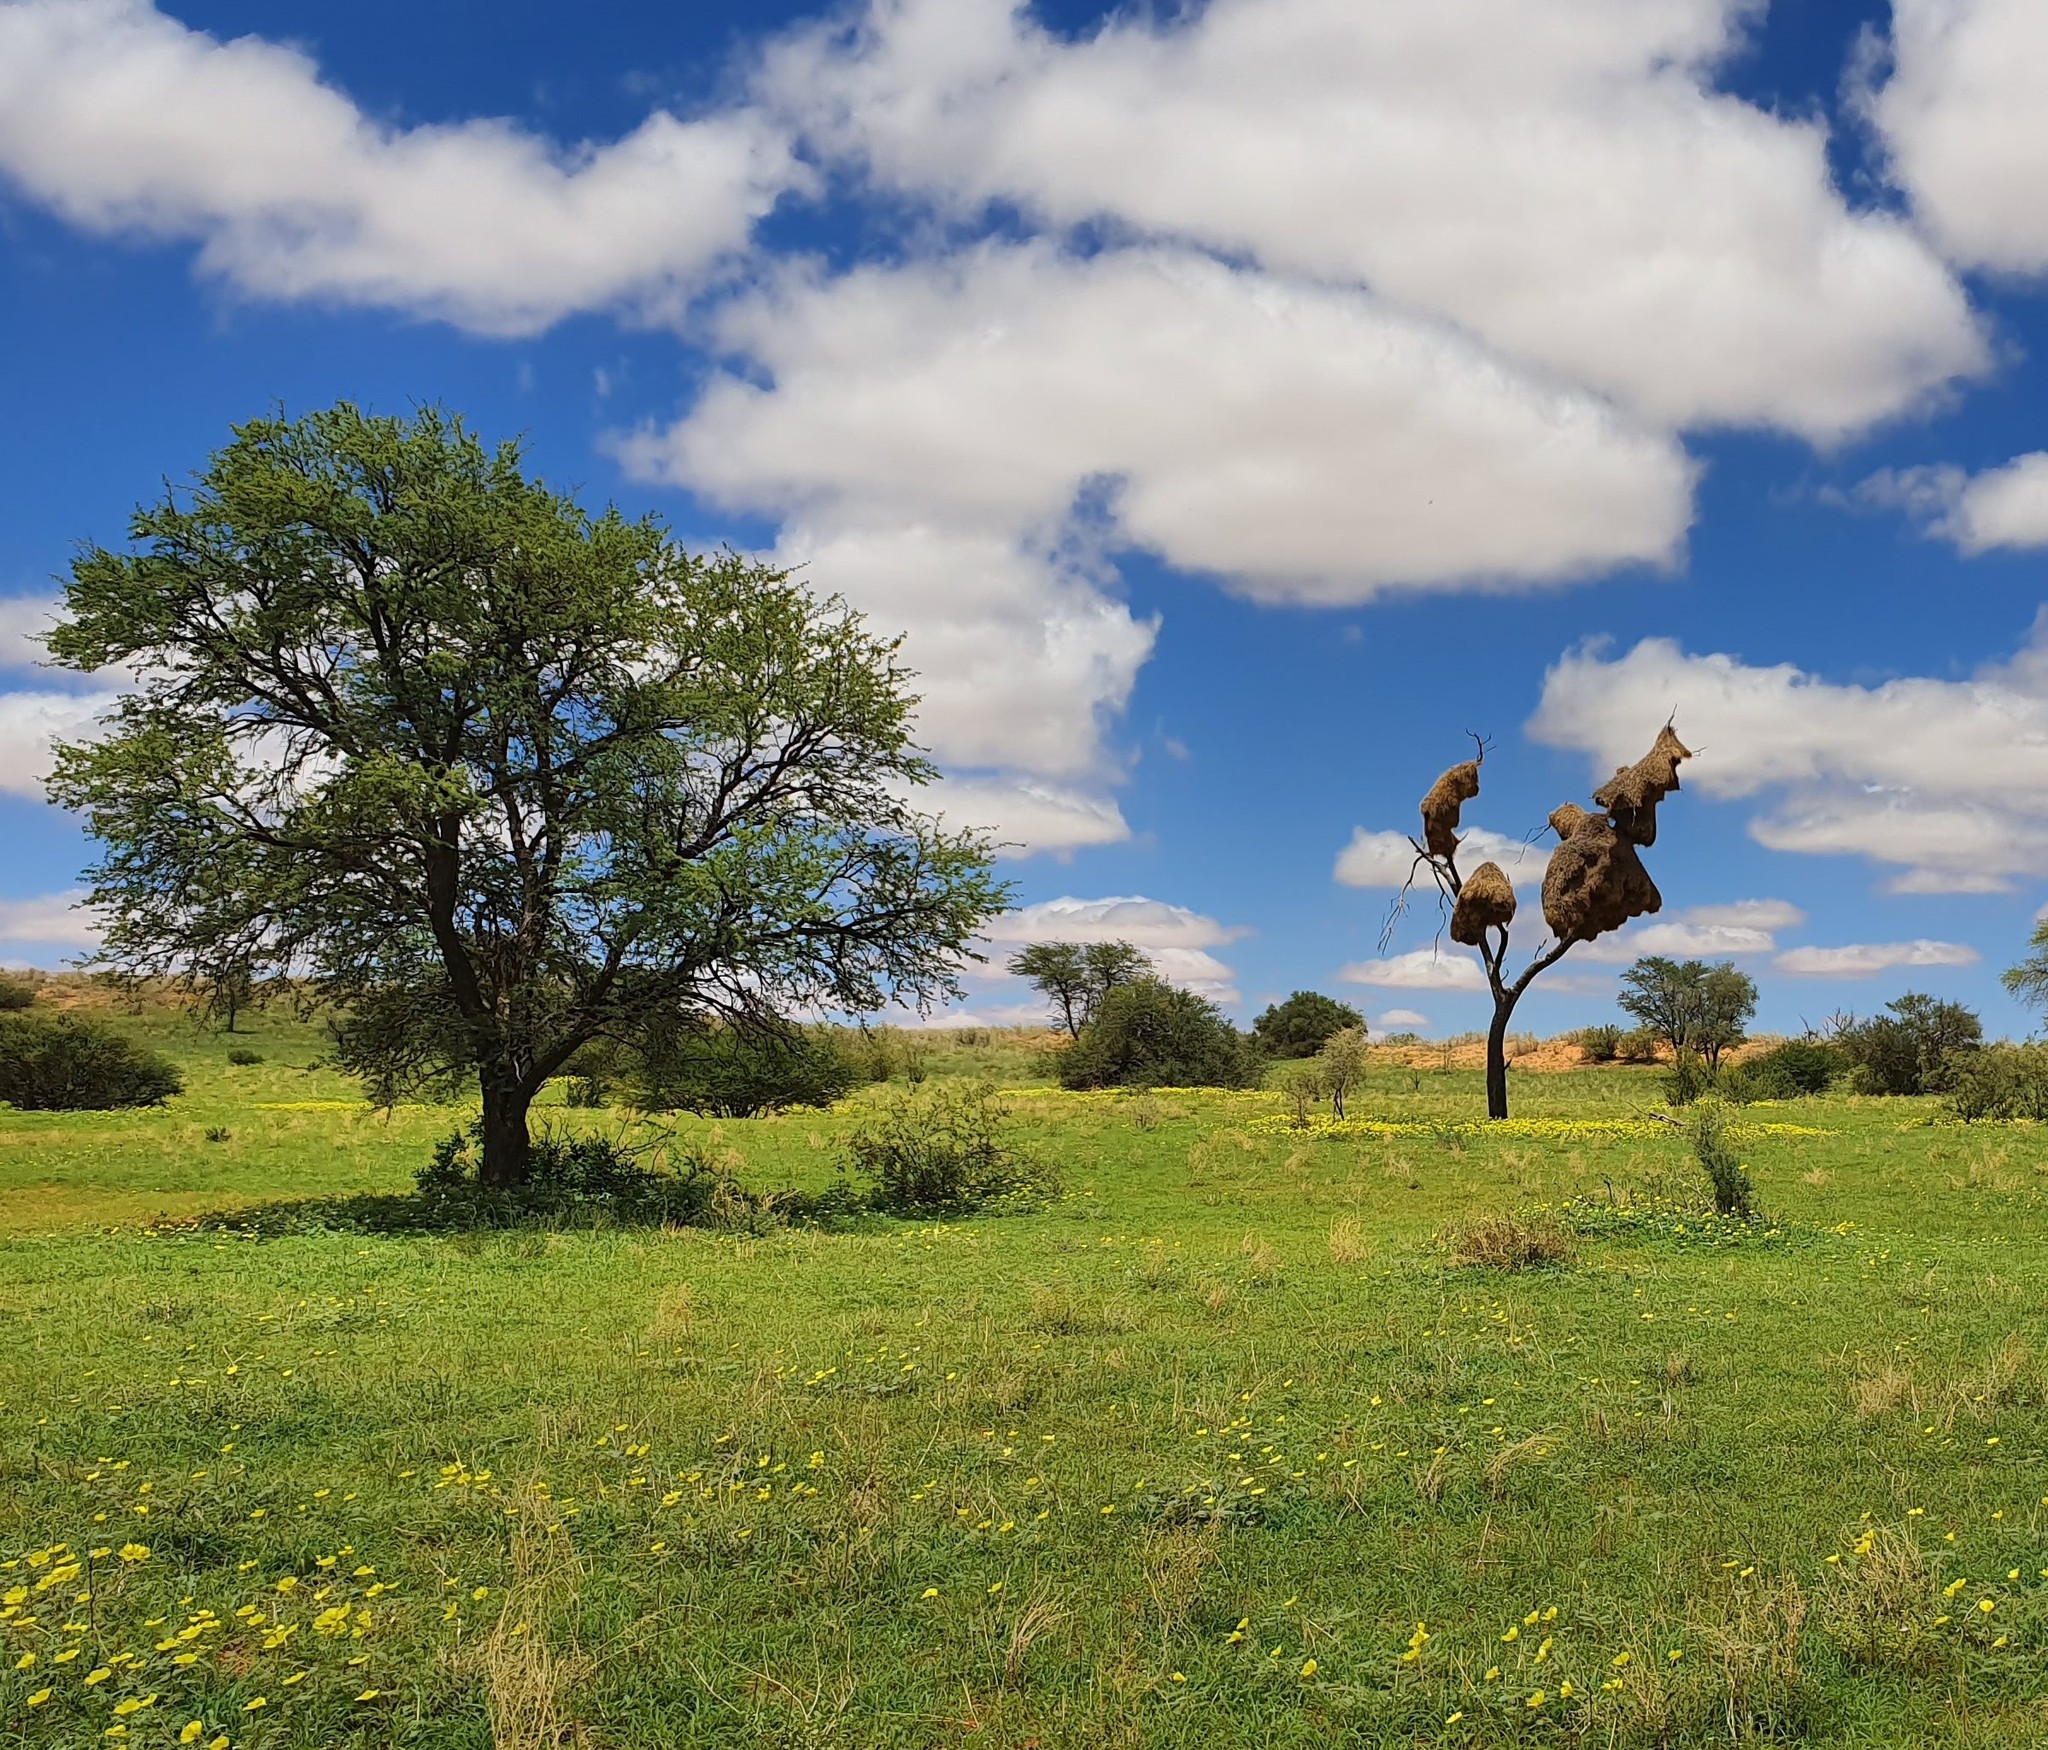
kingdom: Animalia
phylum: Chordata
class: Aves
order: Passeriformes
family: Passeridae
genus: Philetairus
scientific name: Philetairus socius
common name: Sociable weaver
